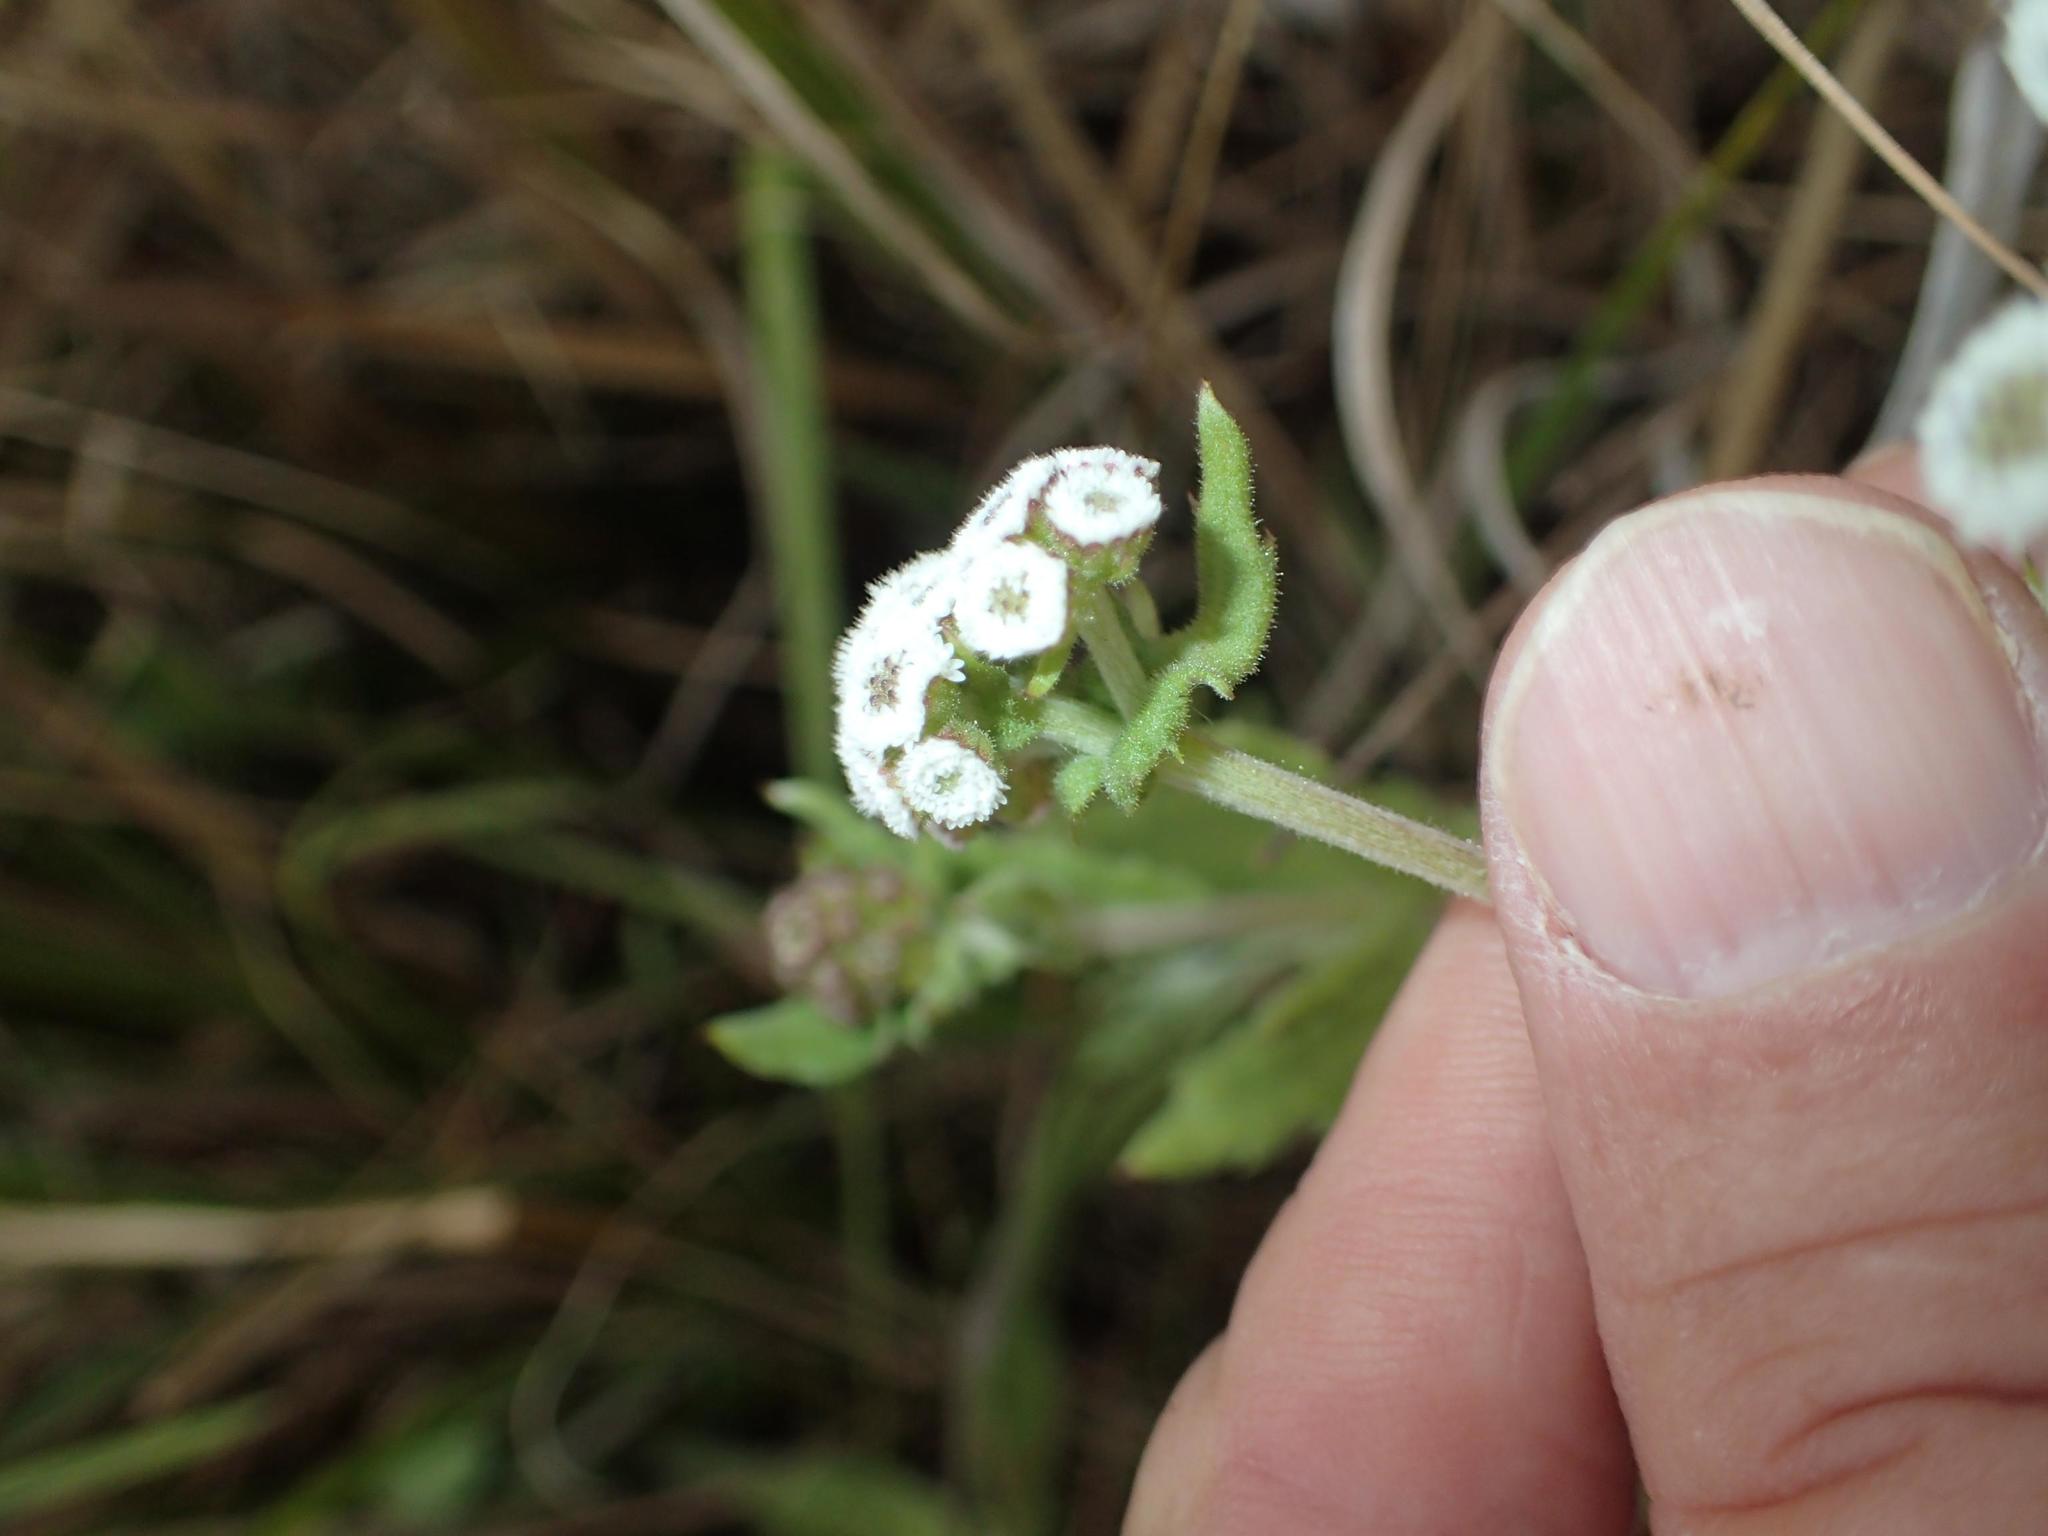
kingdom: Plantae
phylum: Tracheophyta
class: Magnoliopsida
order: Asterales
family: Asteraceae
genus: Denekia
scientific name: Denekia capensis
